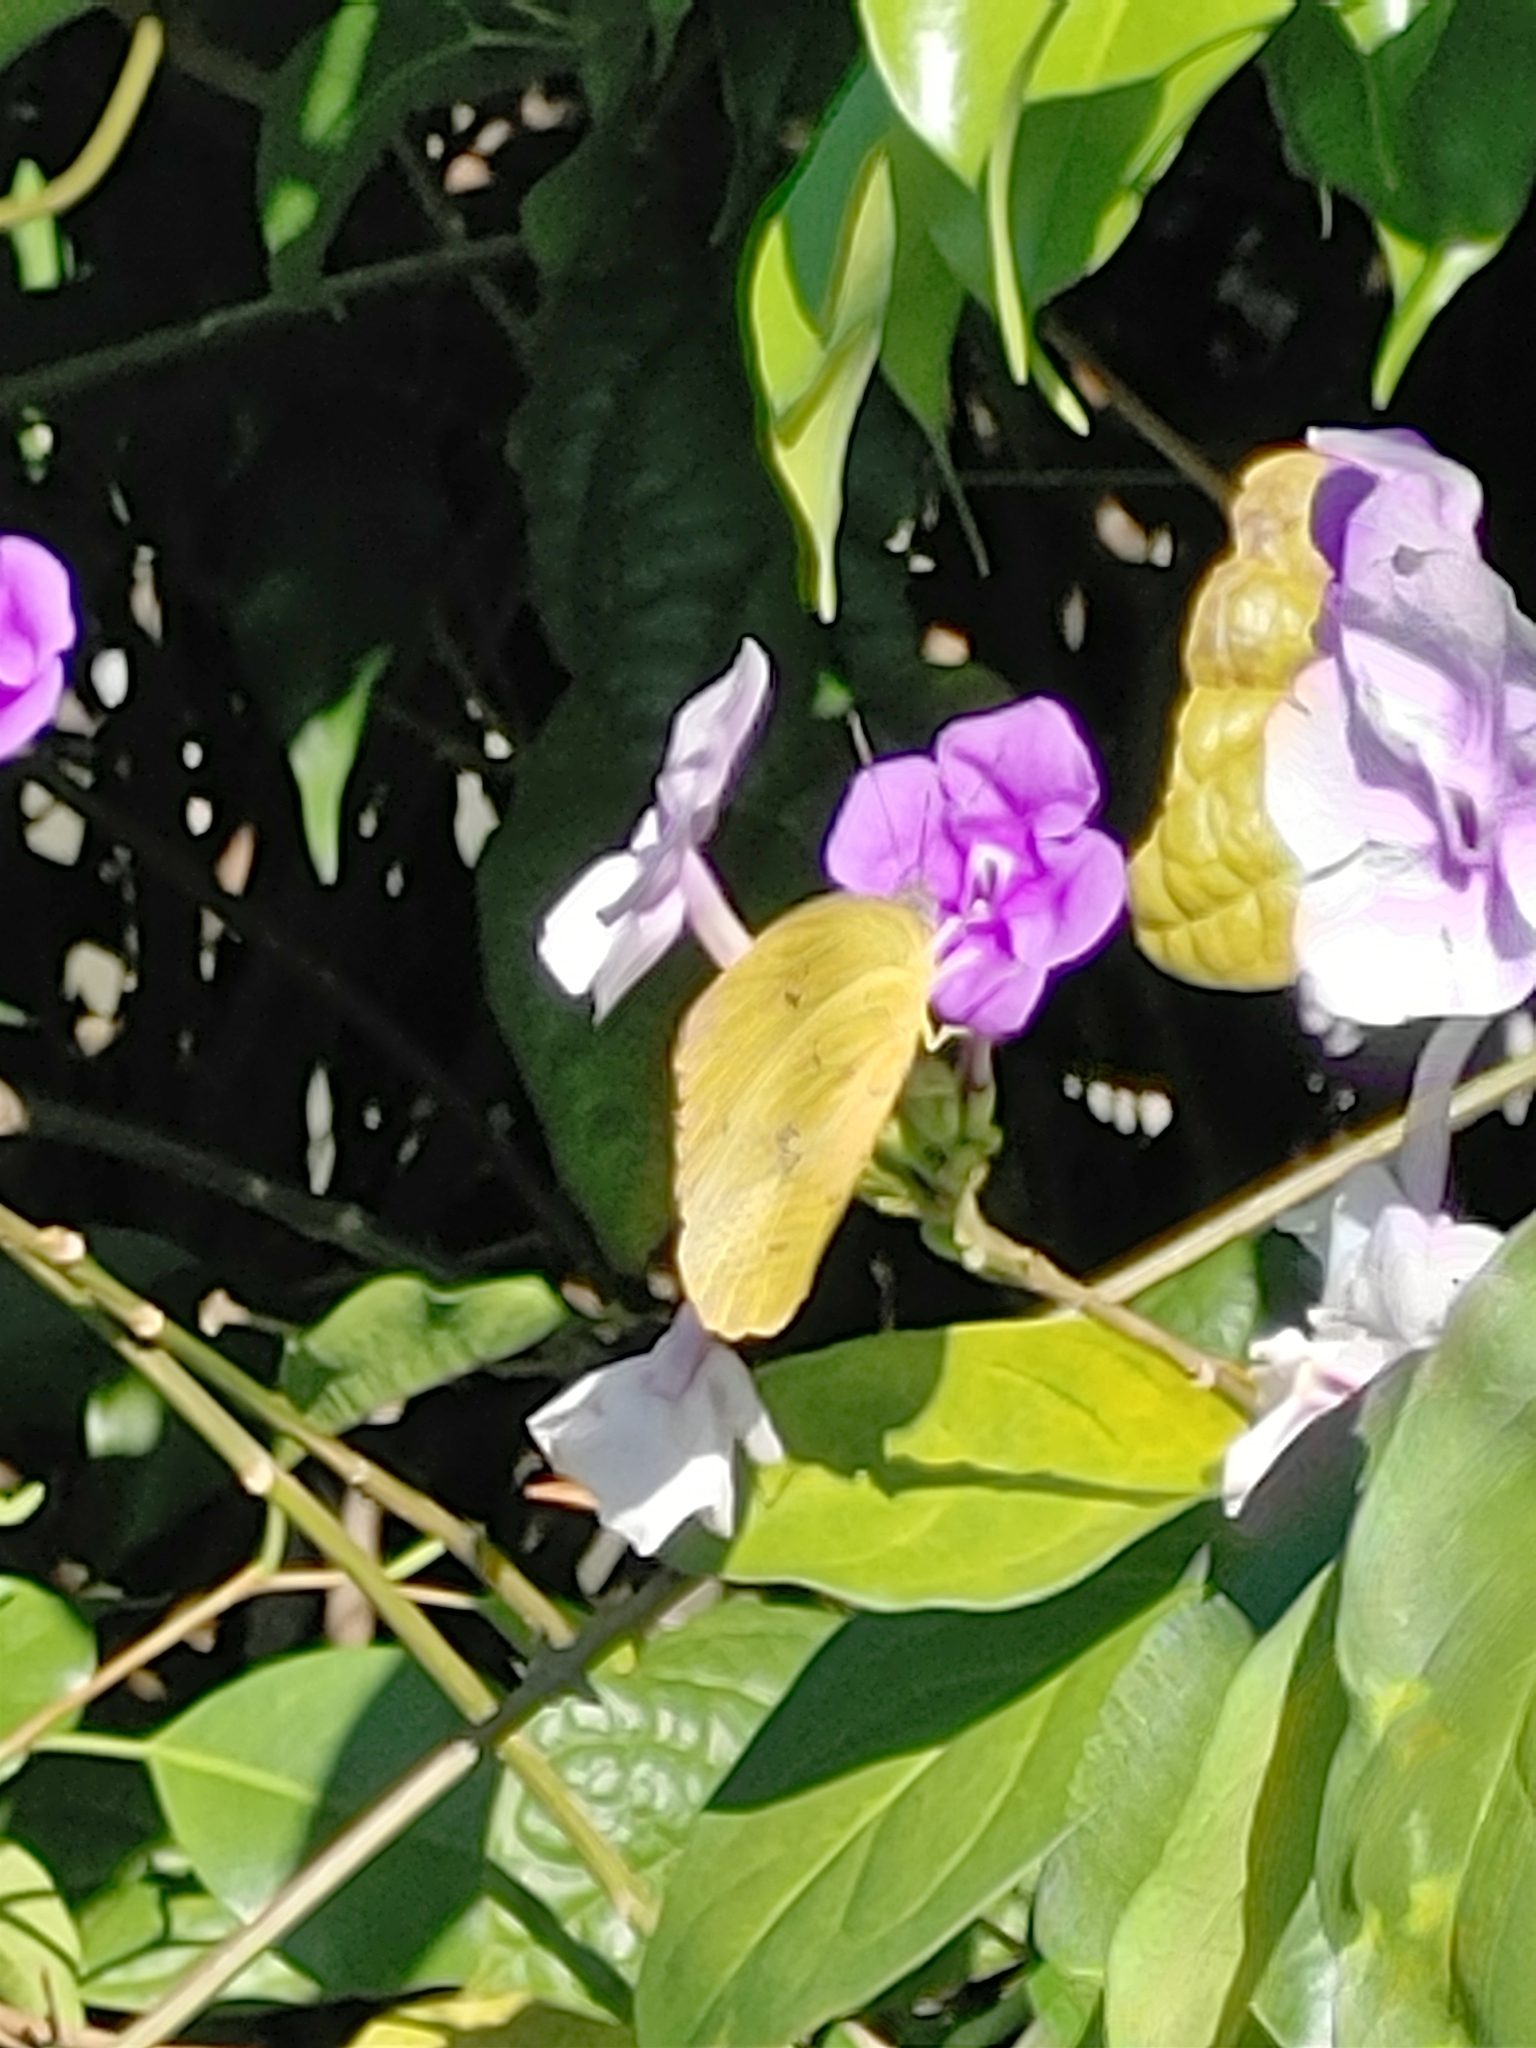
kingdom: Animalia
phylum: Arthropoda
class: Insecta
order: Lepidoptera
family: Pieridae
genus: Phoebis
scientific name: Phoebis philea
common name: Orange-barred giant sulphur
